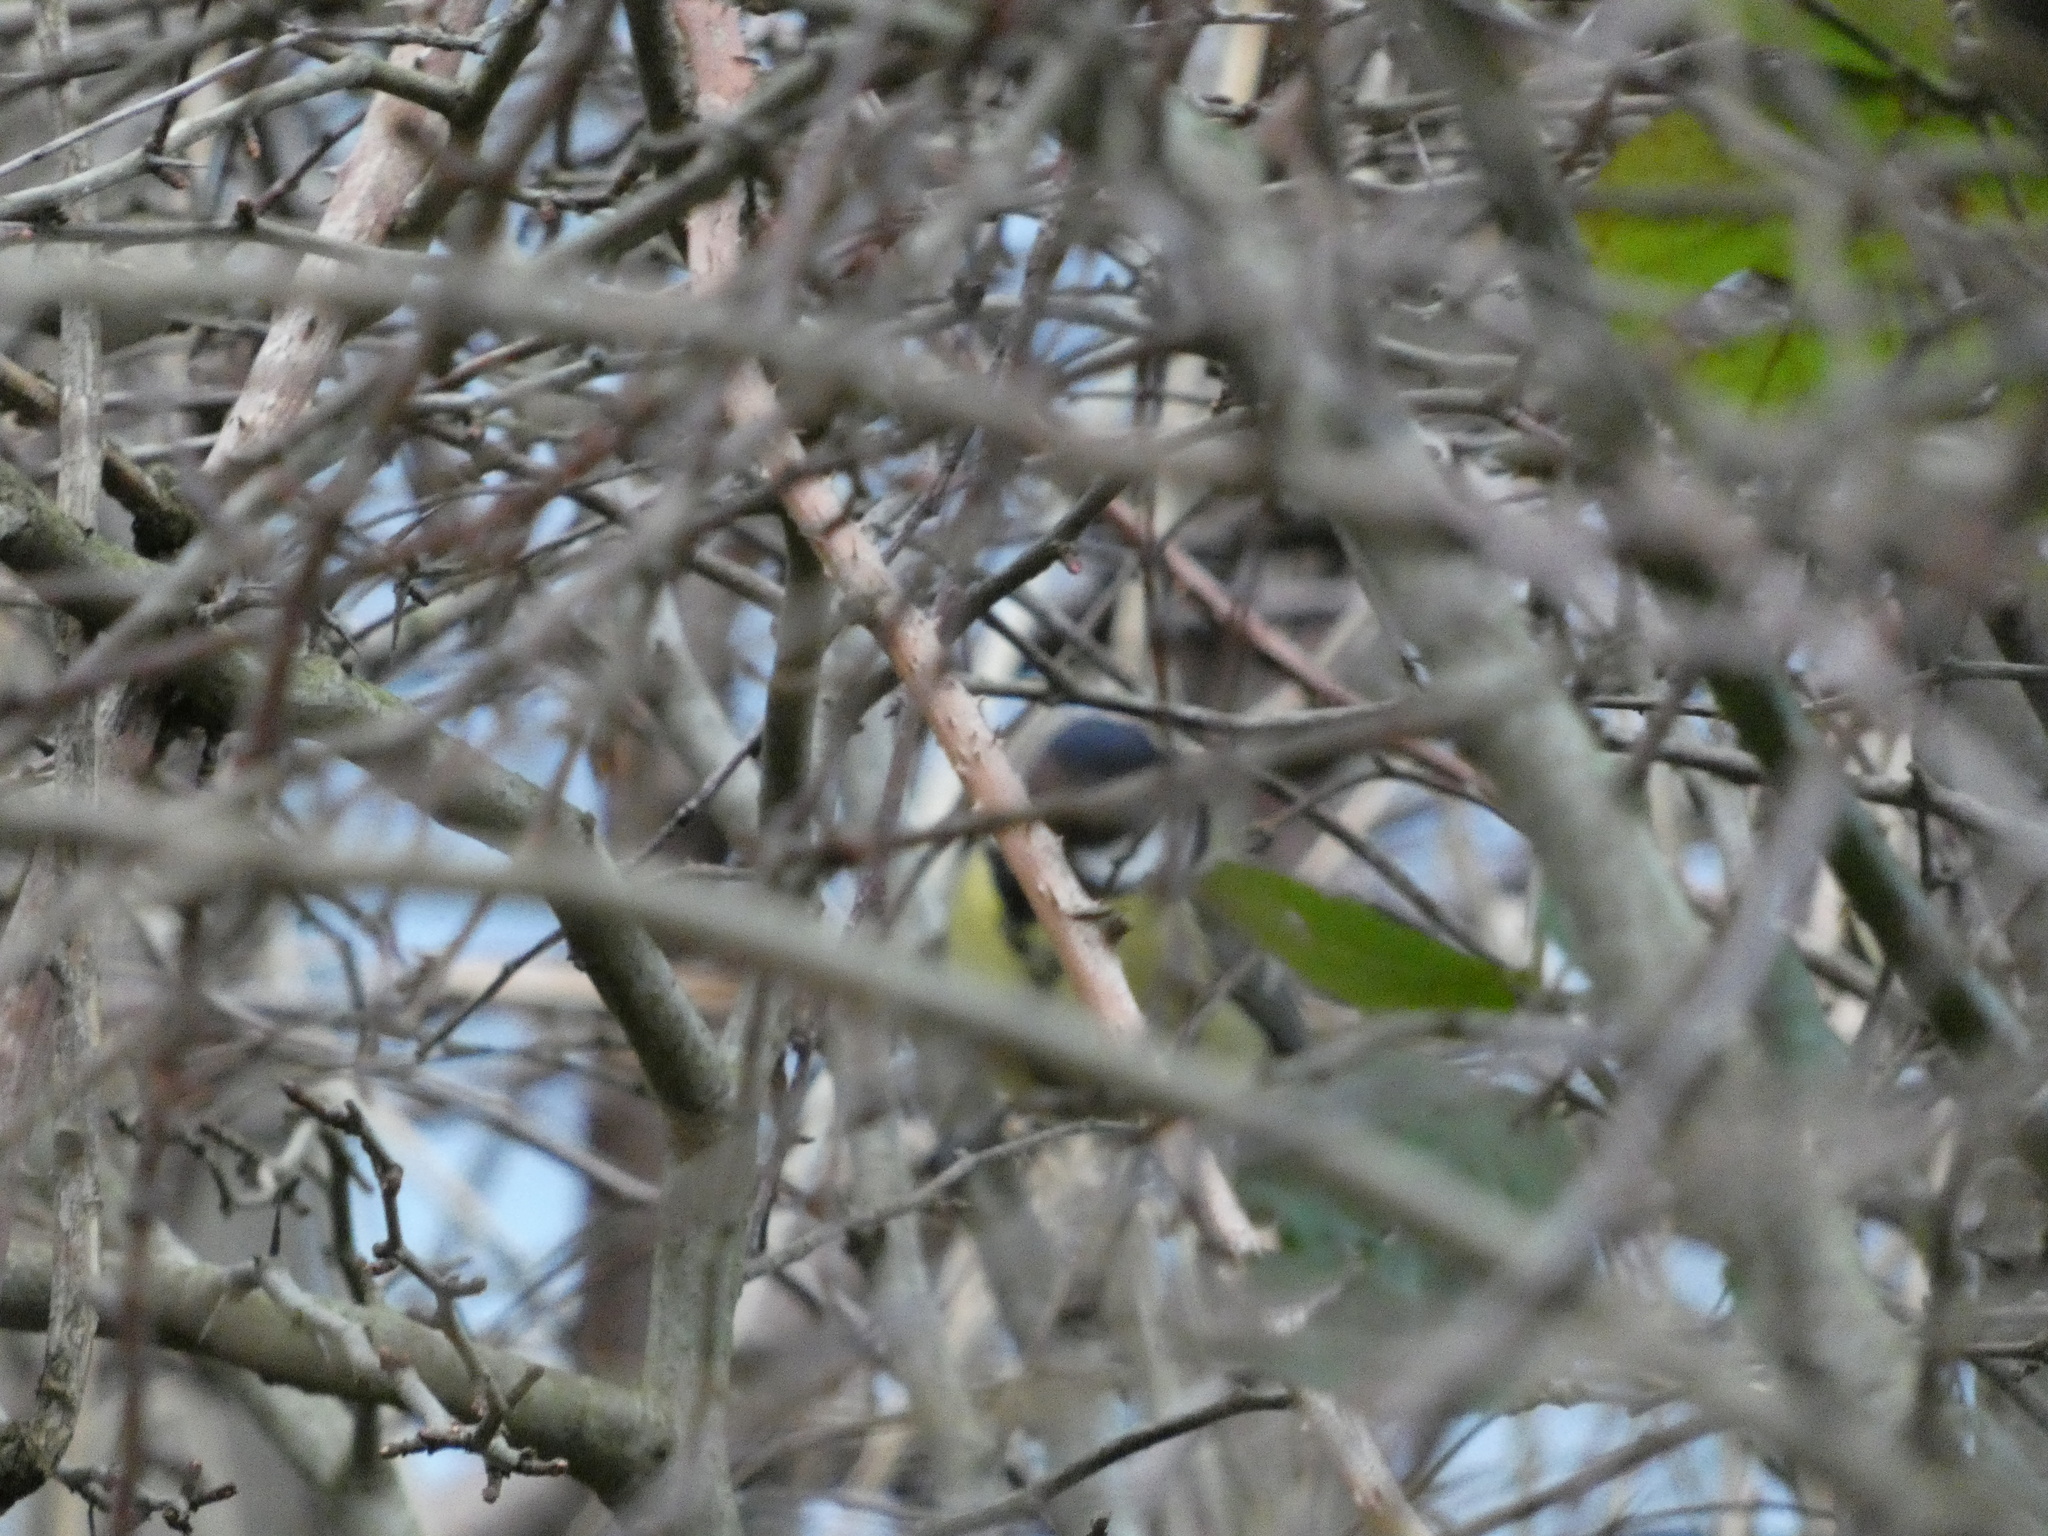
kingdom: Animalia
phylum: Chordata
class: Aves
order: Passeriformes
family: Paridae
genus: Parus
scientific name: Parus major
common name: Great tit
